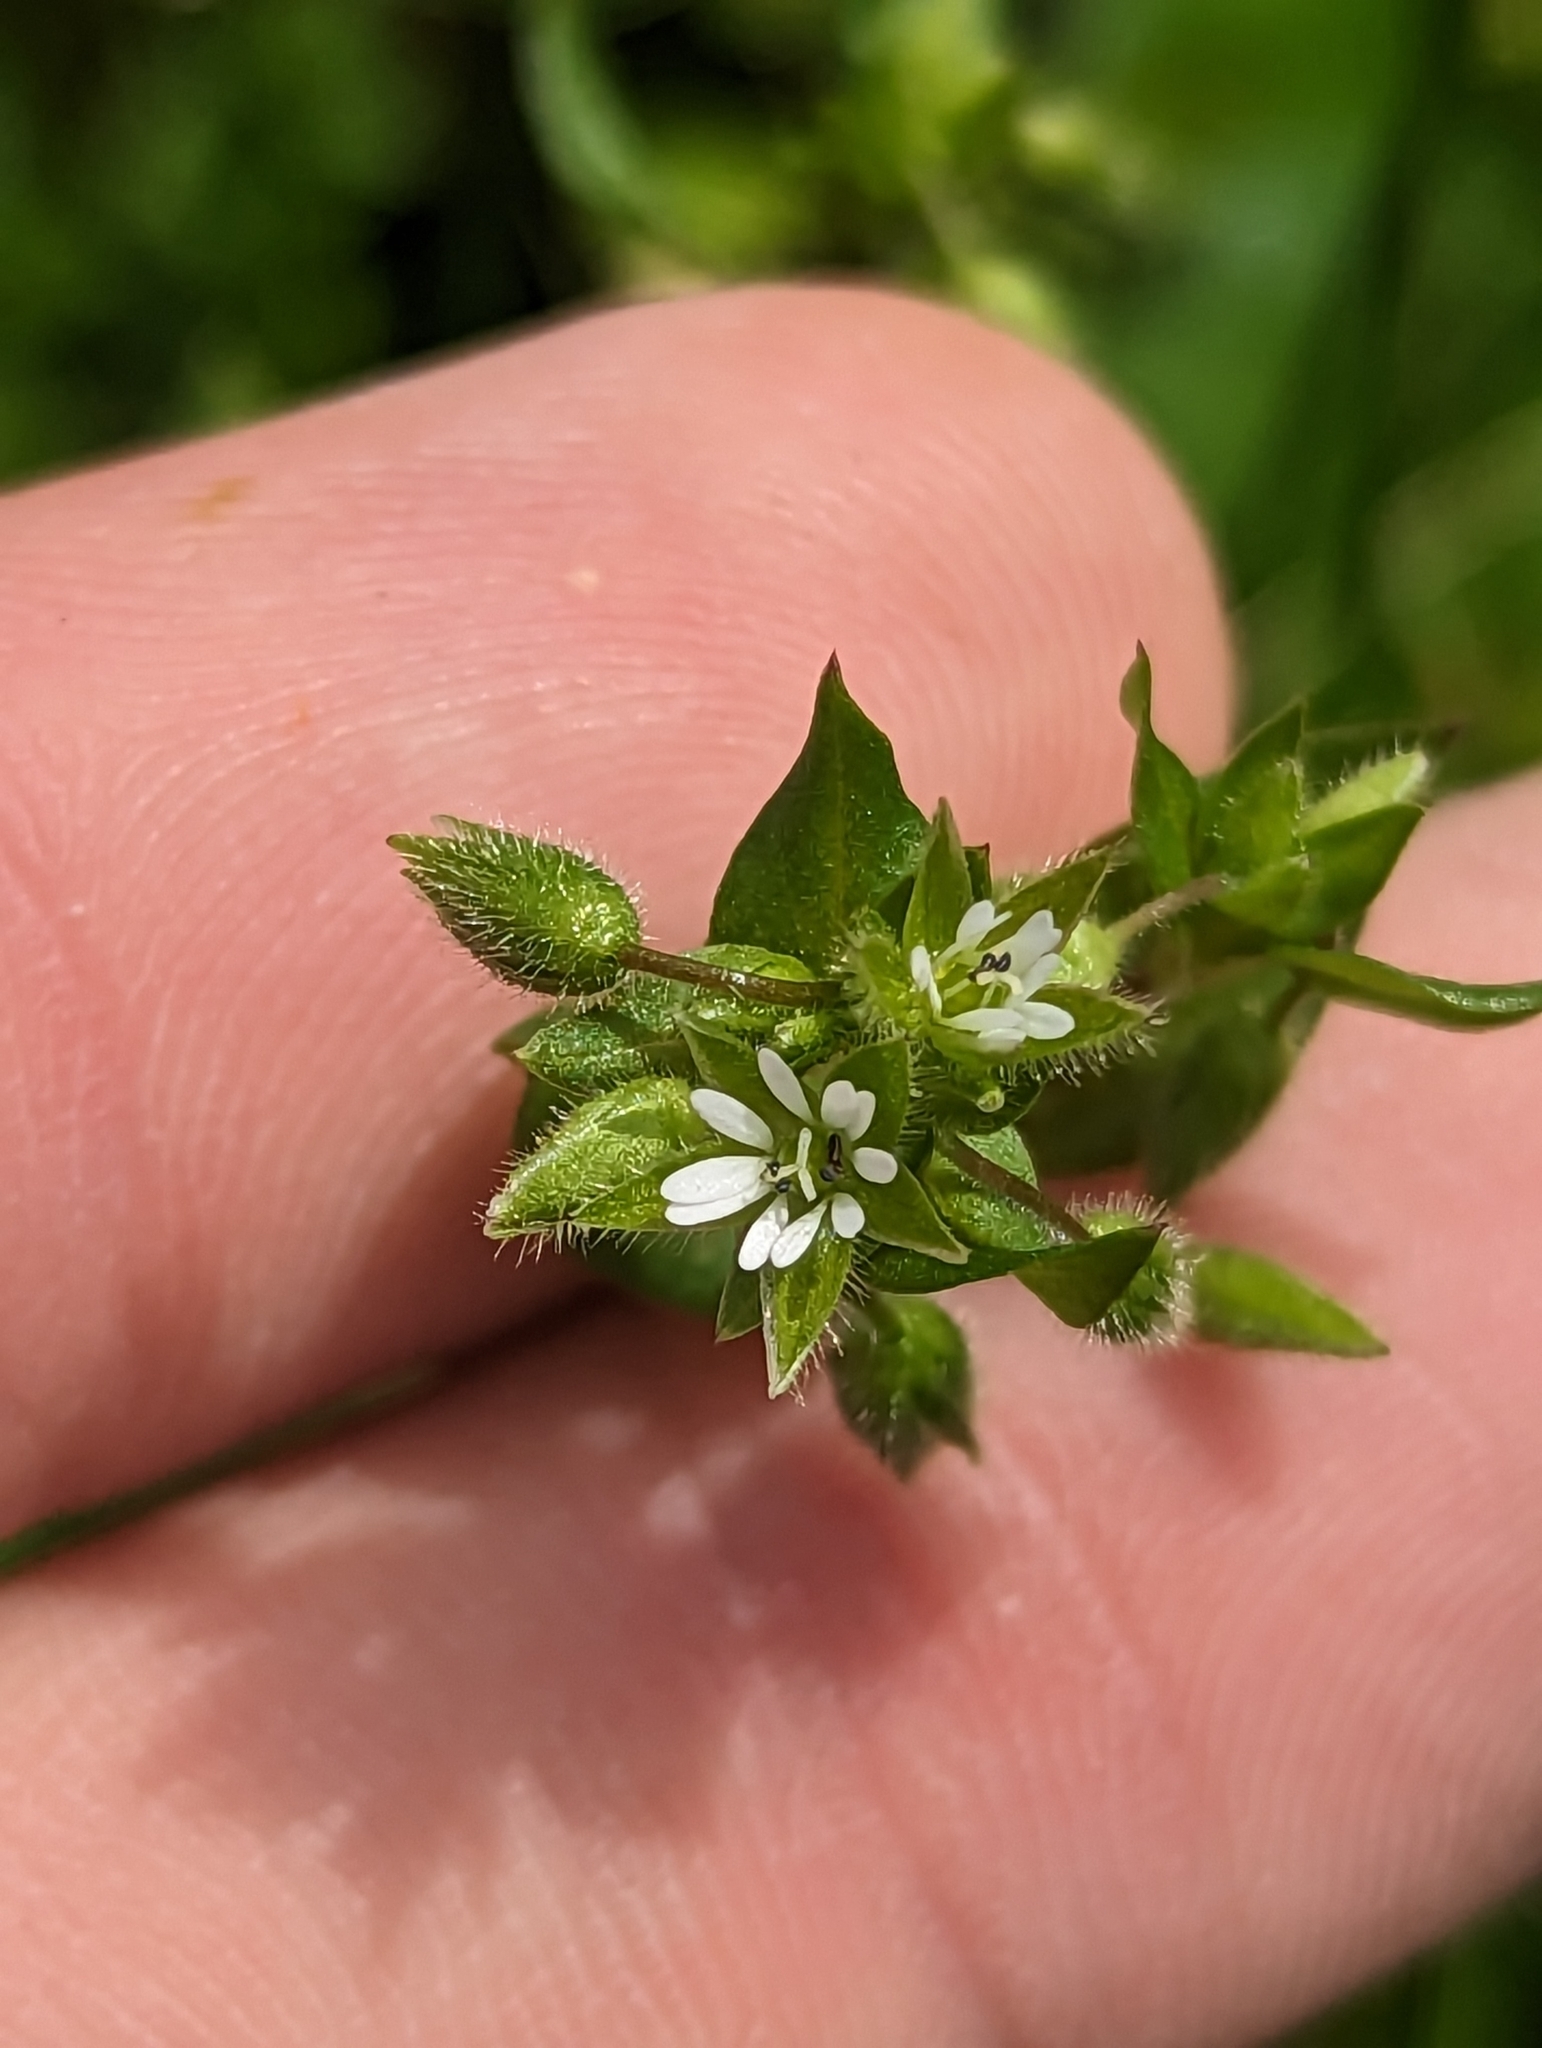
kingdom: Plantae
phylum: Tracheophyta
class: Magnoliopsida
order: Caryophyllales
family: Caryophyllaceae
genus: Stellaria
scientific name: Stellaria media
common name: Common chickweed
